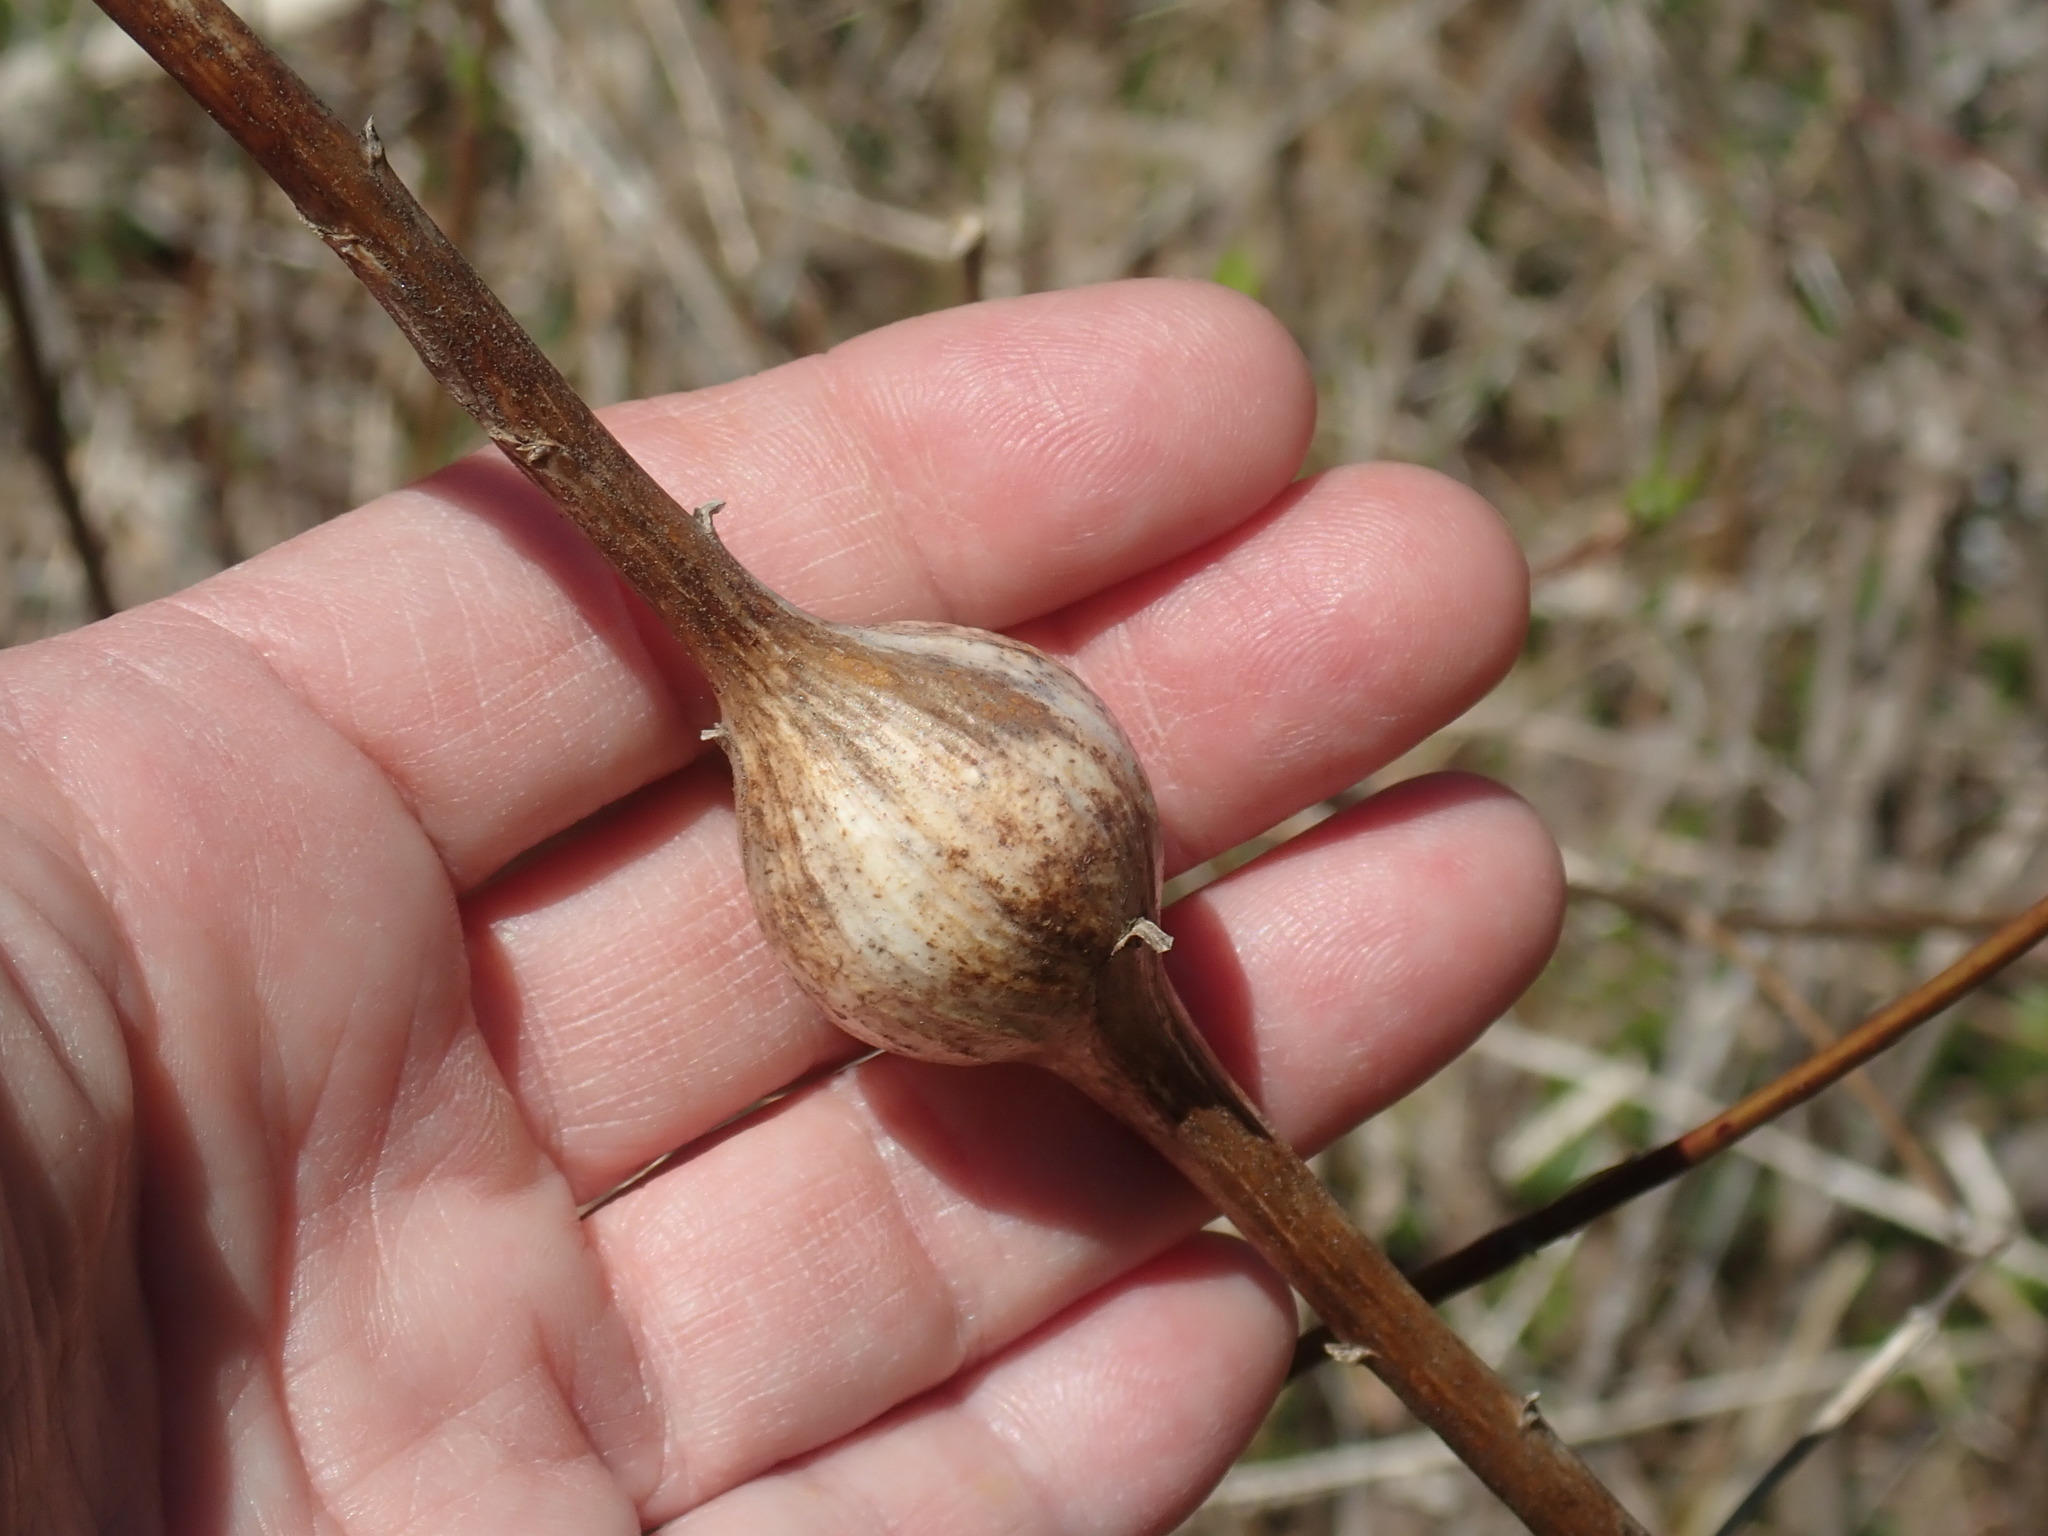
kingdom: Animalia
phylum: Arthropoda
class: Insecta
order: Diptera
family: Tephritidae
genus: Eurosta
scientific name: Eurosta solidaginis
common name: Goldenrod gall fly
